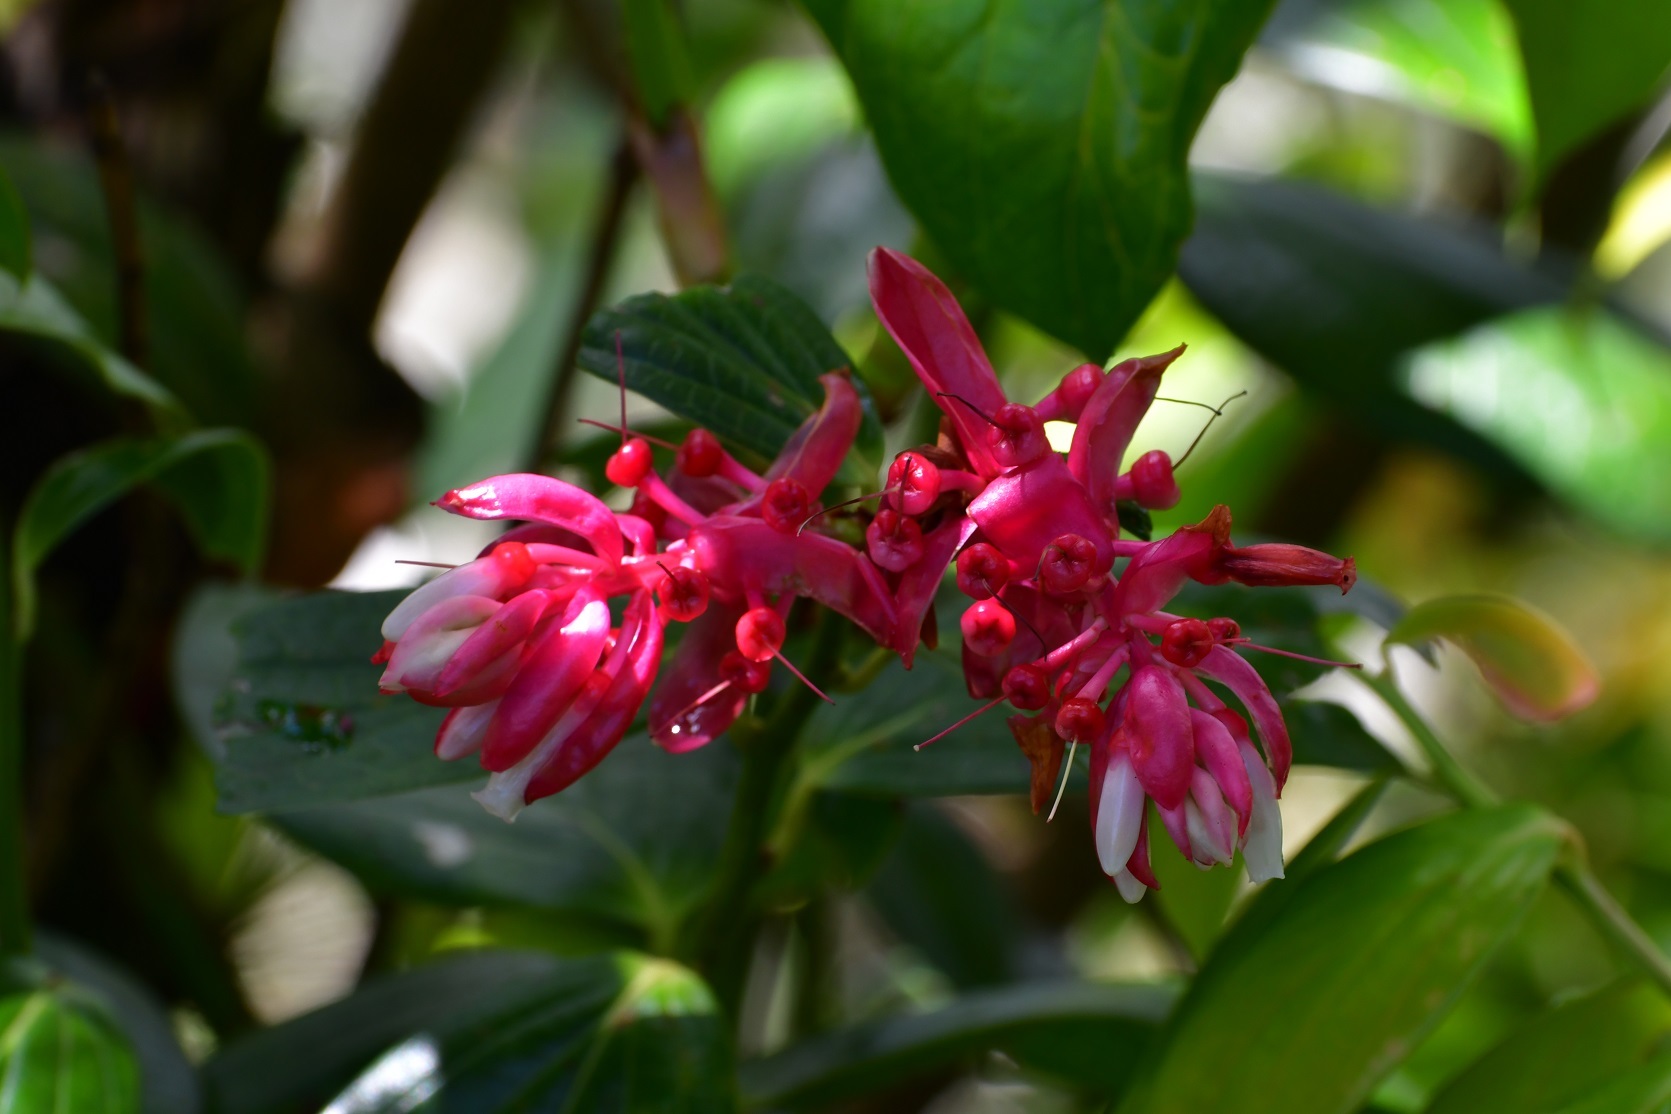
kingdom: Plantae
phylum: Tracheophyta
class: Magnoliopsida
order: Ericales
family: Ericaceae
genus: Cavendishia
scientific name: Cavendishia bracteata
